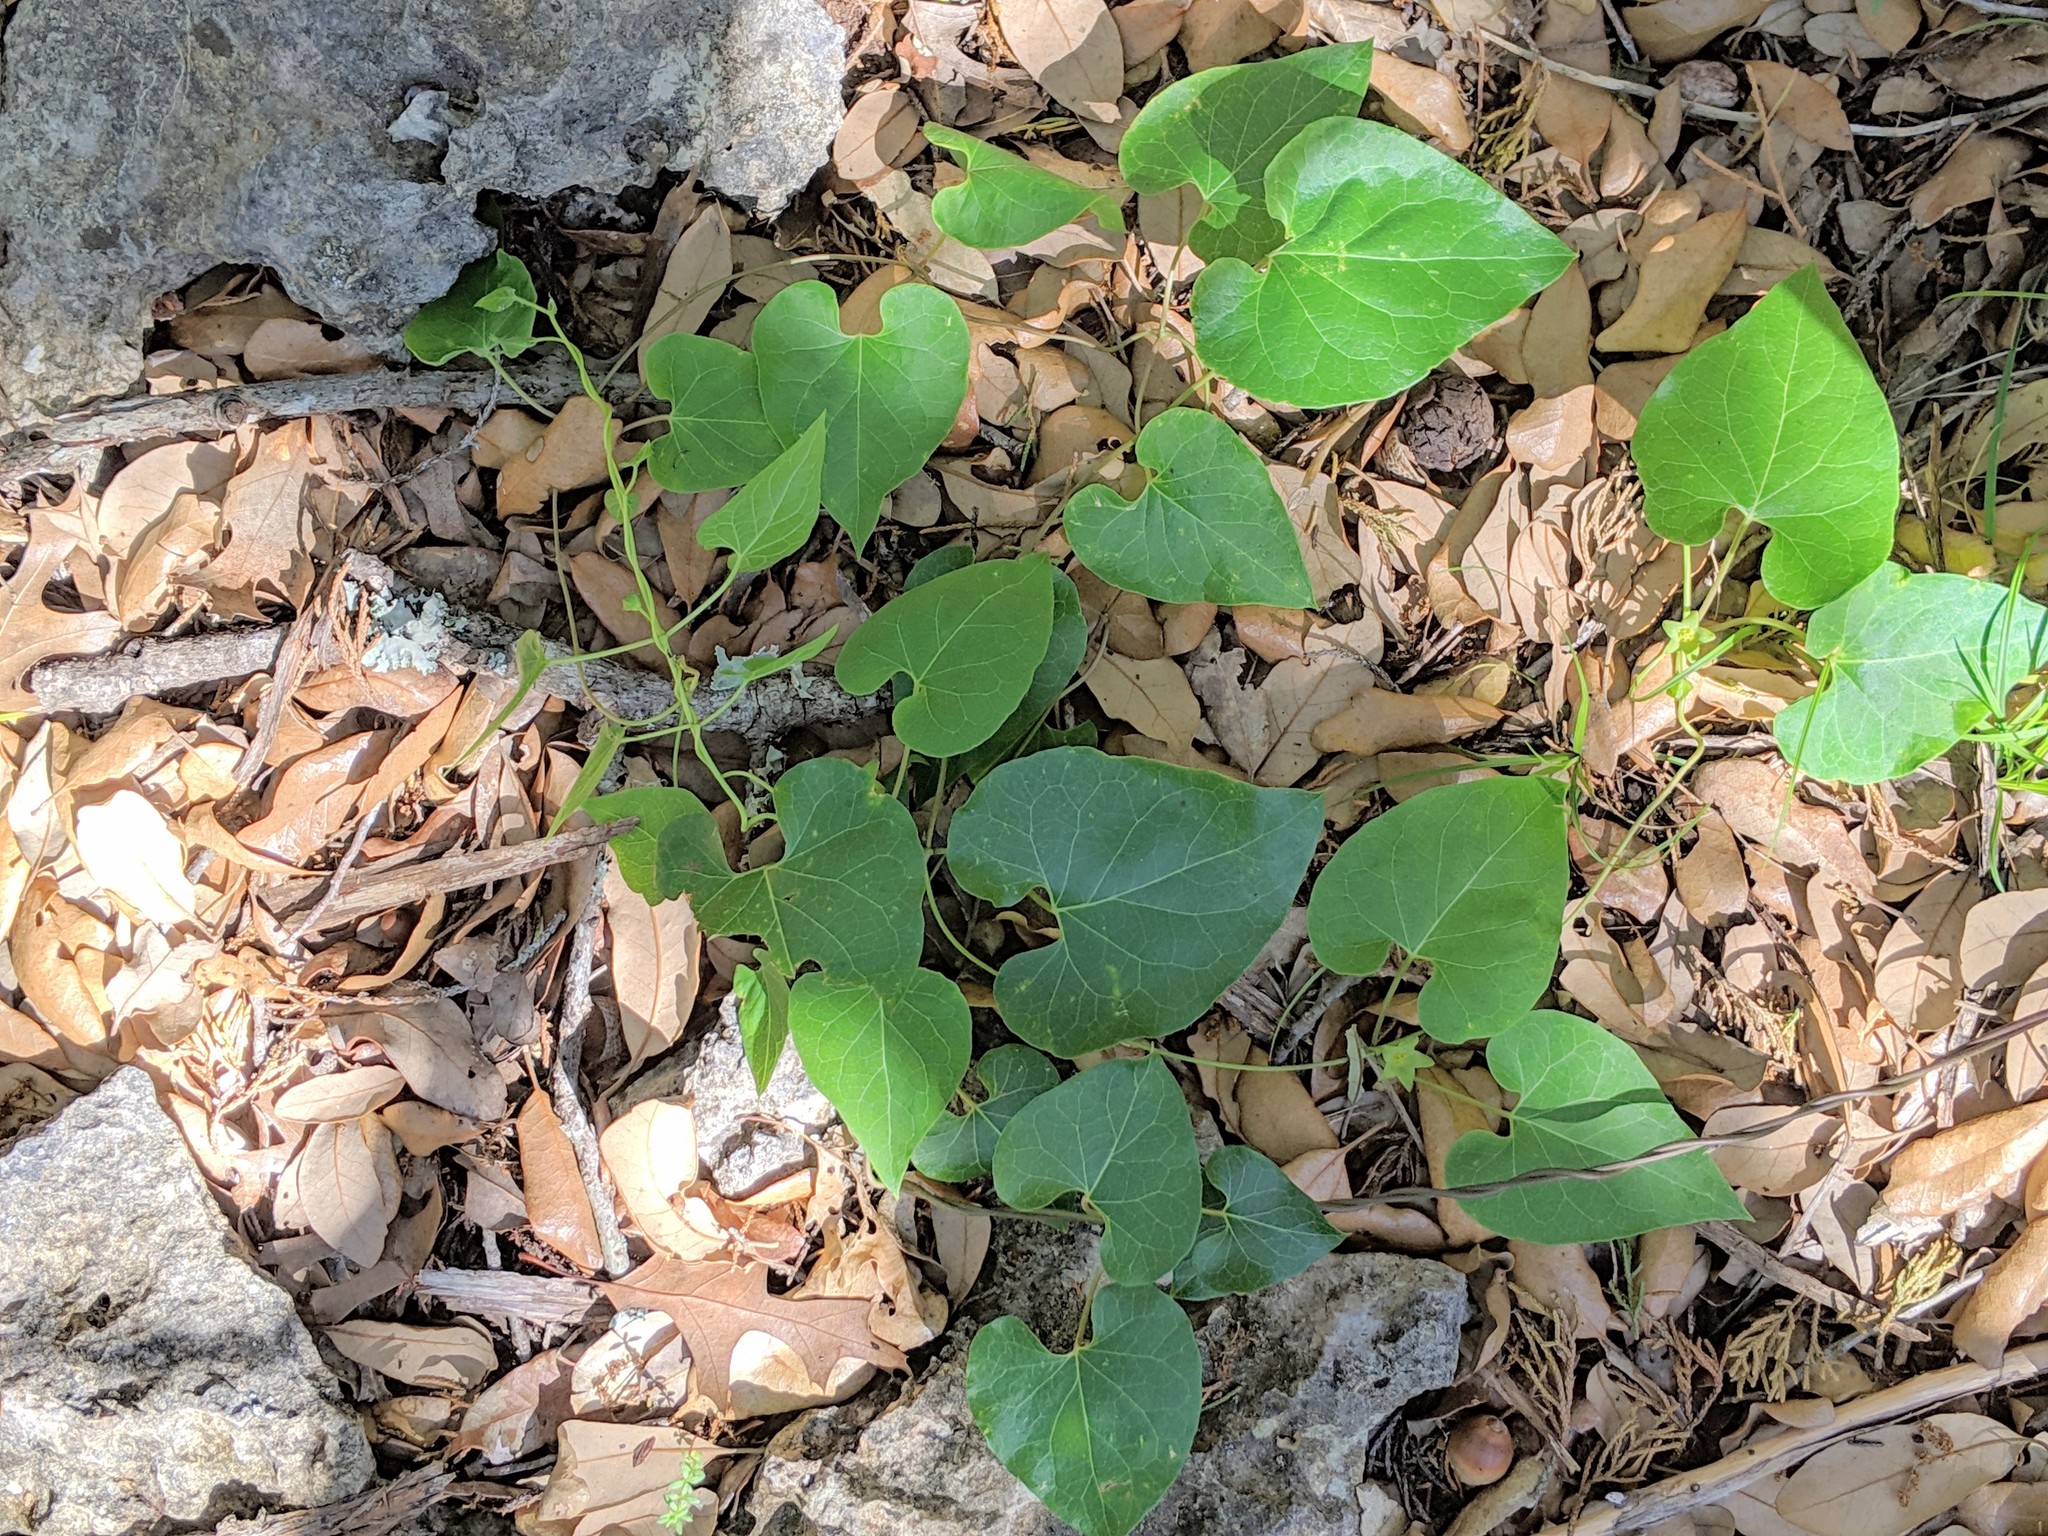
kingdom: Plantae
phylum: Tracheophyta
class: Magnoliopsida
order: Gentianales
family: Apocynaceae
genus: Matelea
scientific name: Matelea edwardsensis
